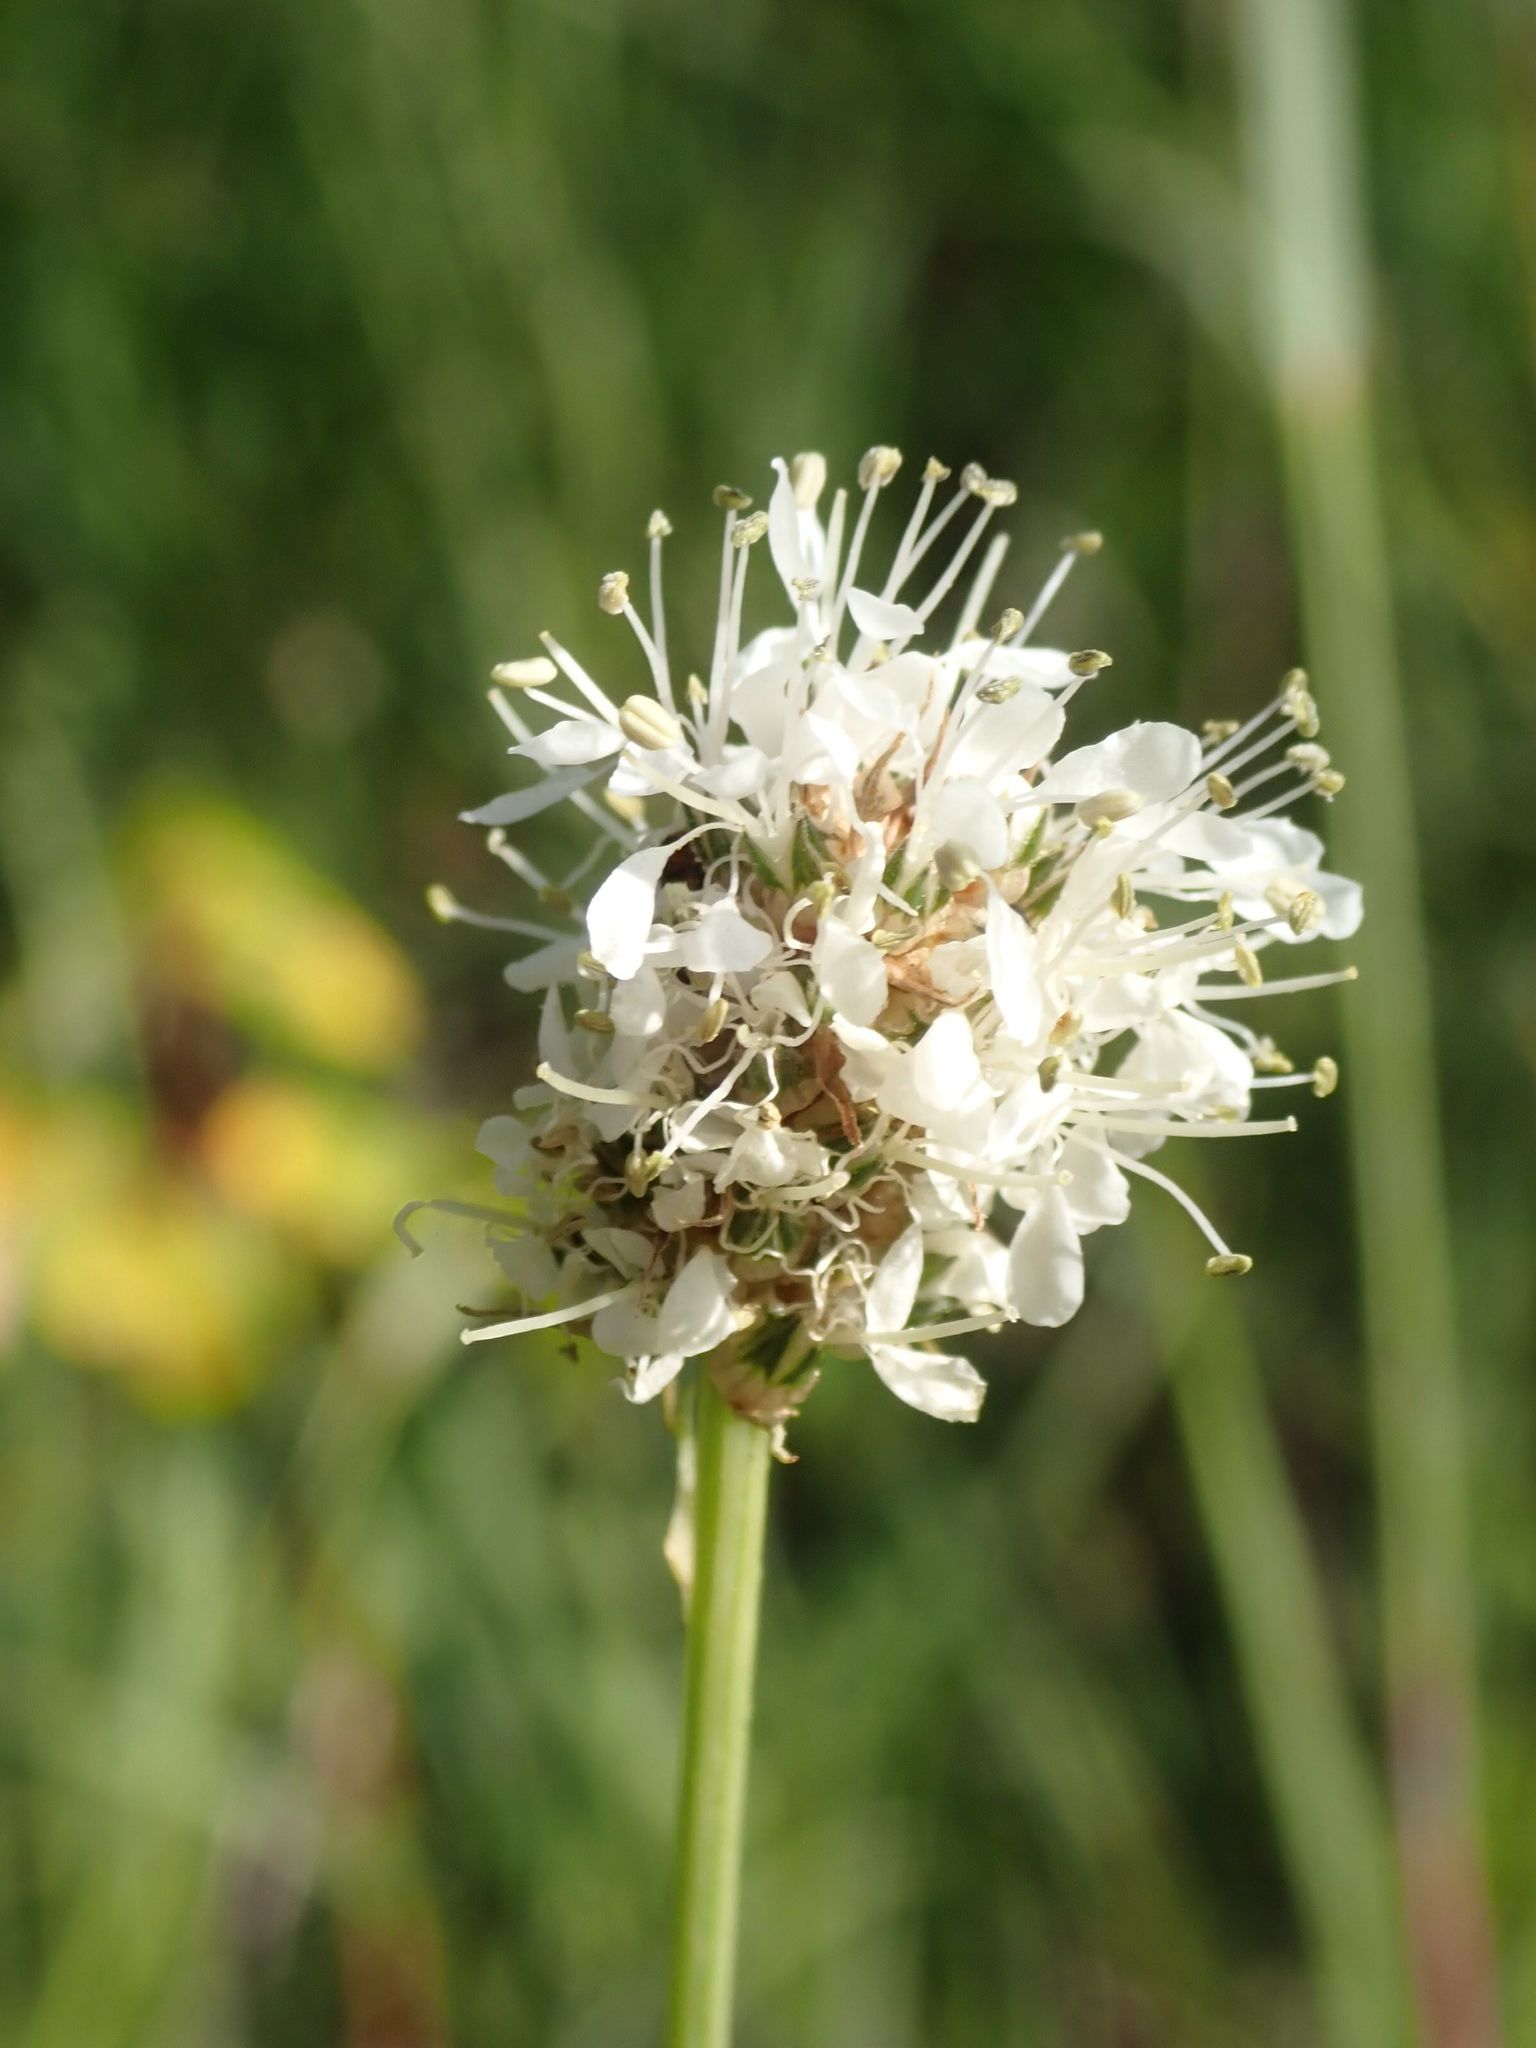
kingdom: Plantae
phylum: Tracheophyta
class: Magnoliopsida
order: Fabales
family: Fabaceae
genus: Dalea
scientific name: Dalea candida
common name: White prairie-clover
